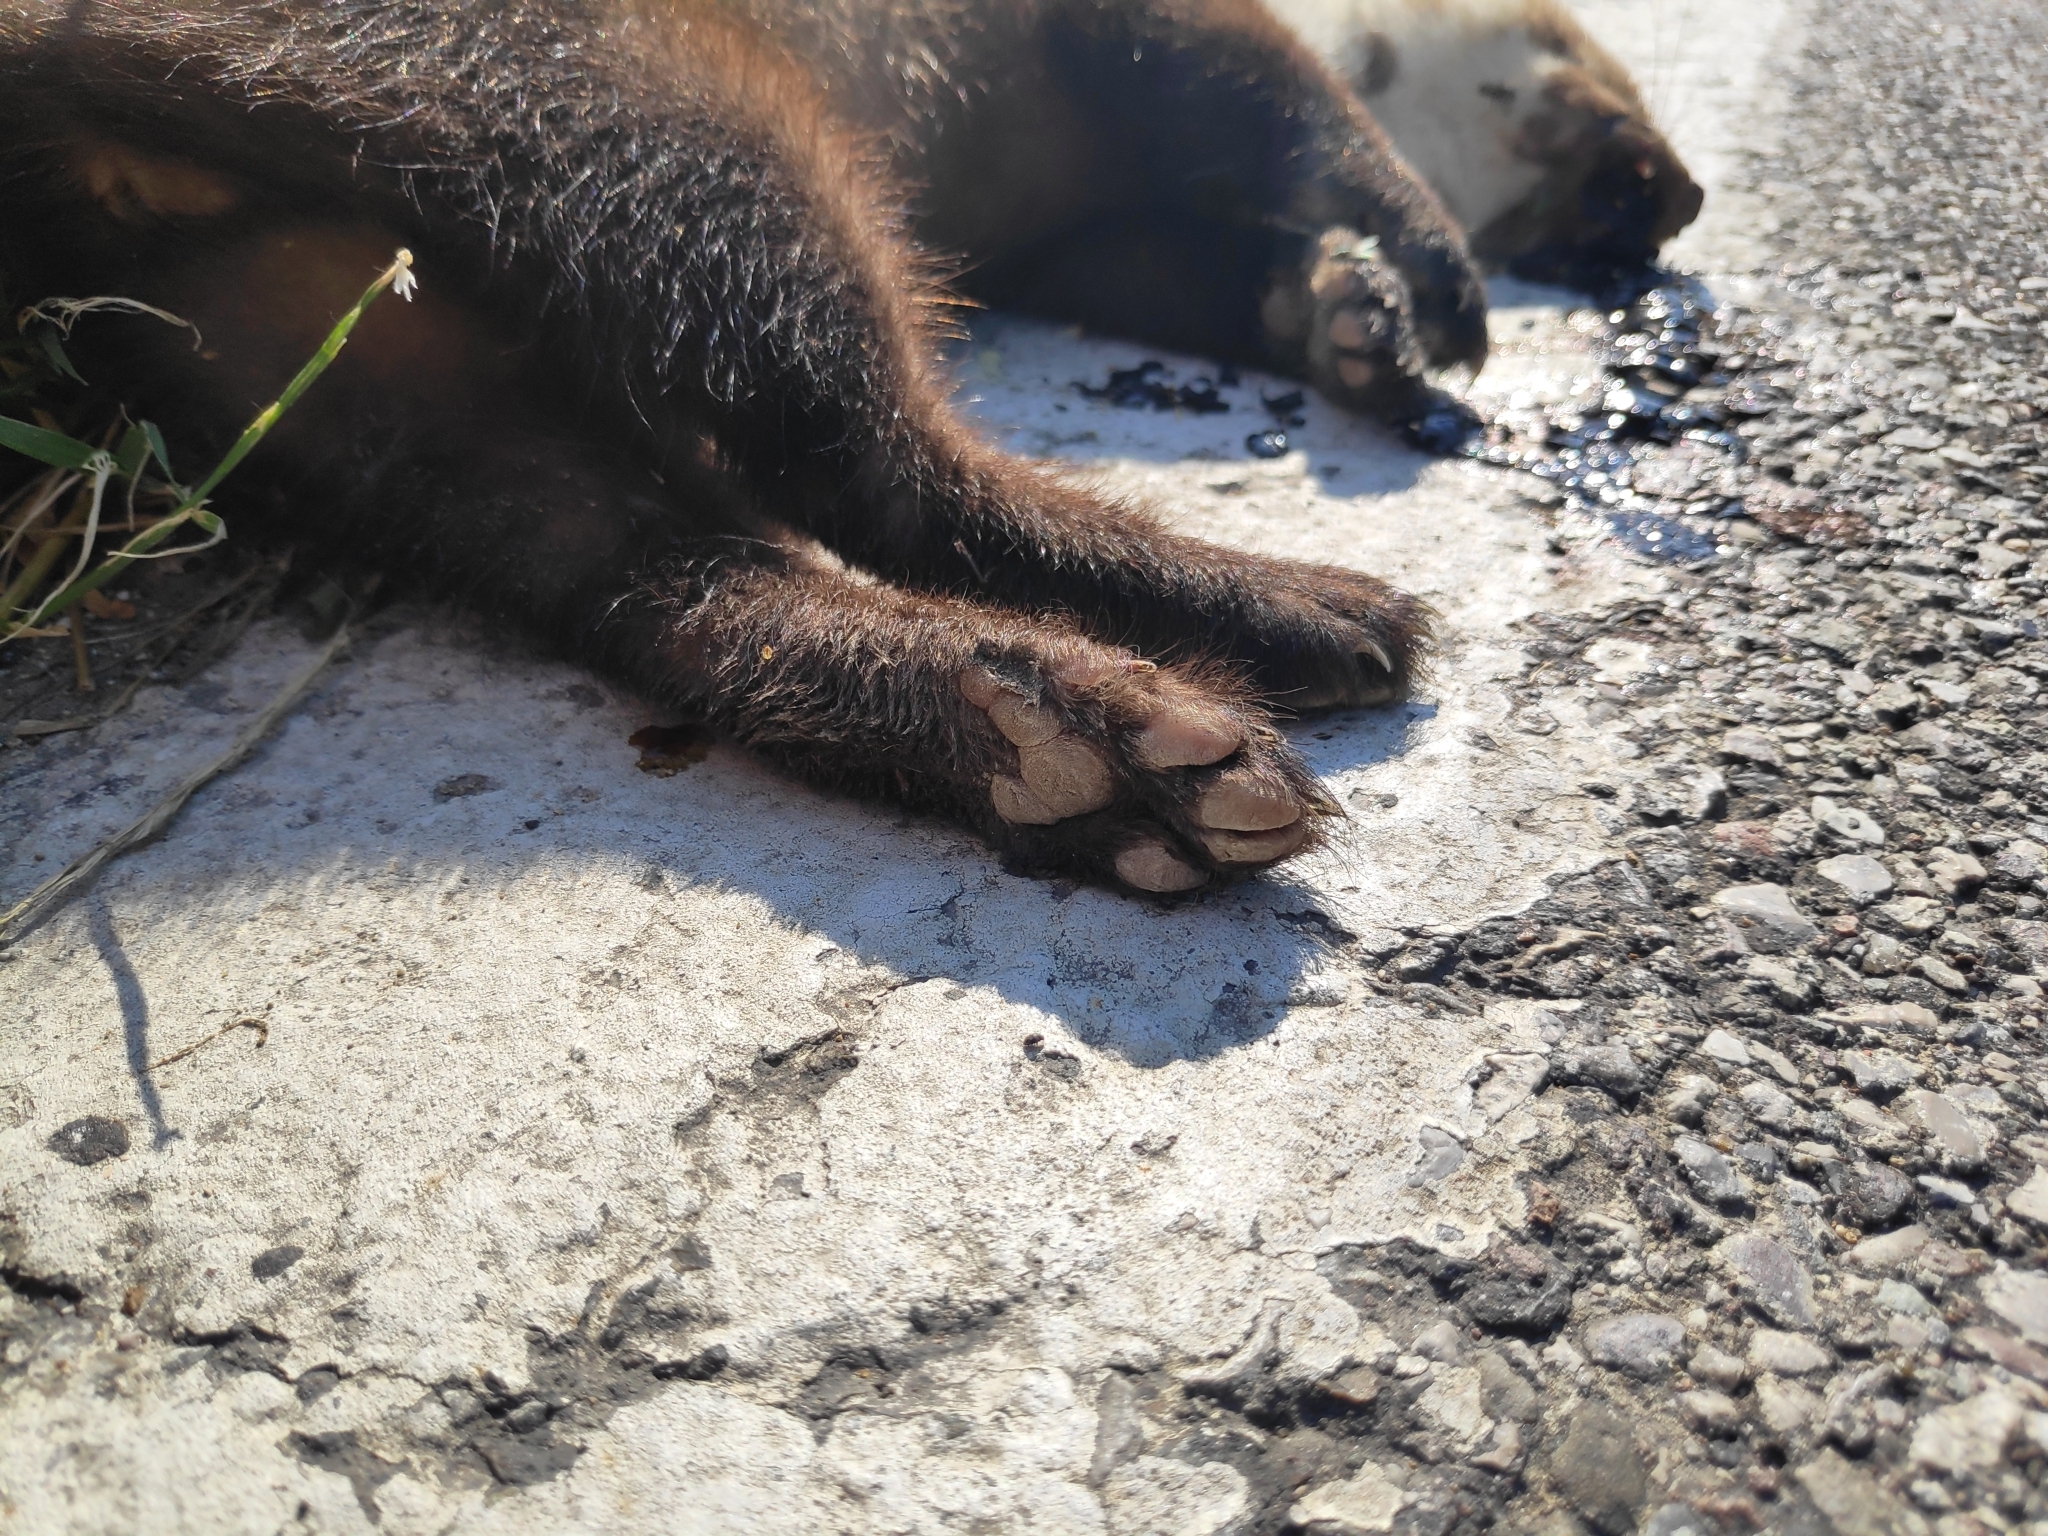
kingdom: Animalia
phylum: Chordata
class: Mammalia
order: Carnivora
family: Mustelidae
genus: Martes
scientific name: Martes foina
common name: Beech marten
